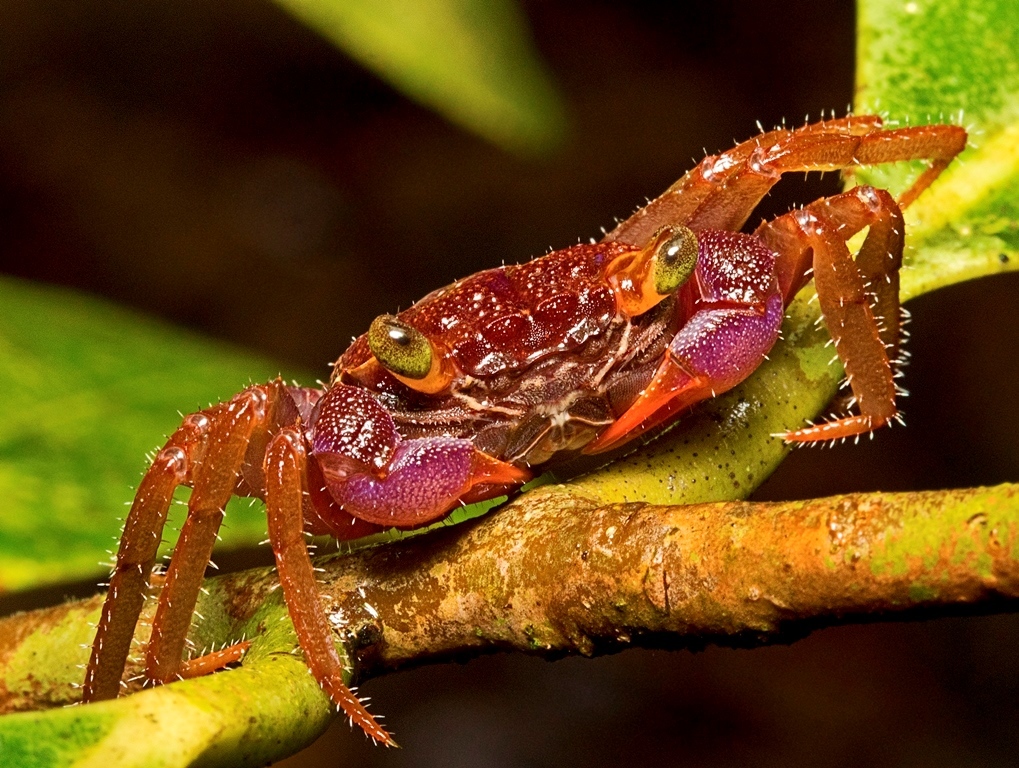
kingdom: Animalia
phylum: Arthropoda
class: Malacostraca
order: Decapoda
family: Sesarmidae
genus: Geosesarma
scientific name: Geosesarma spectrum
